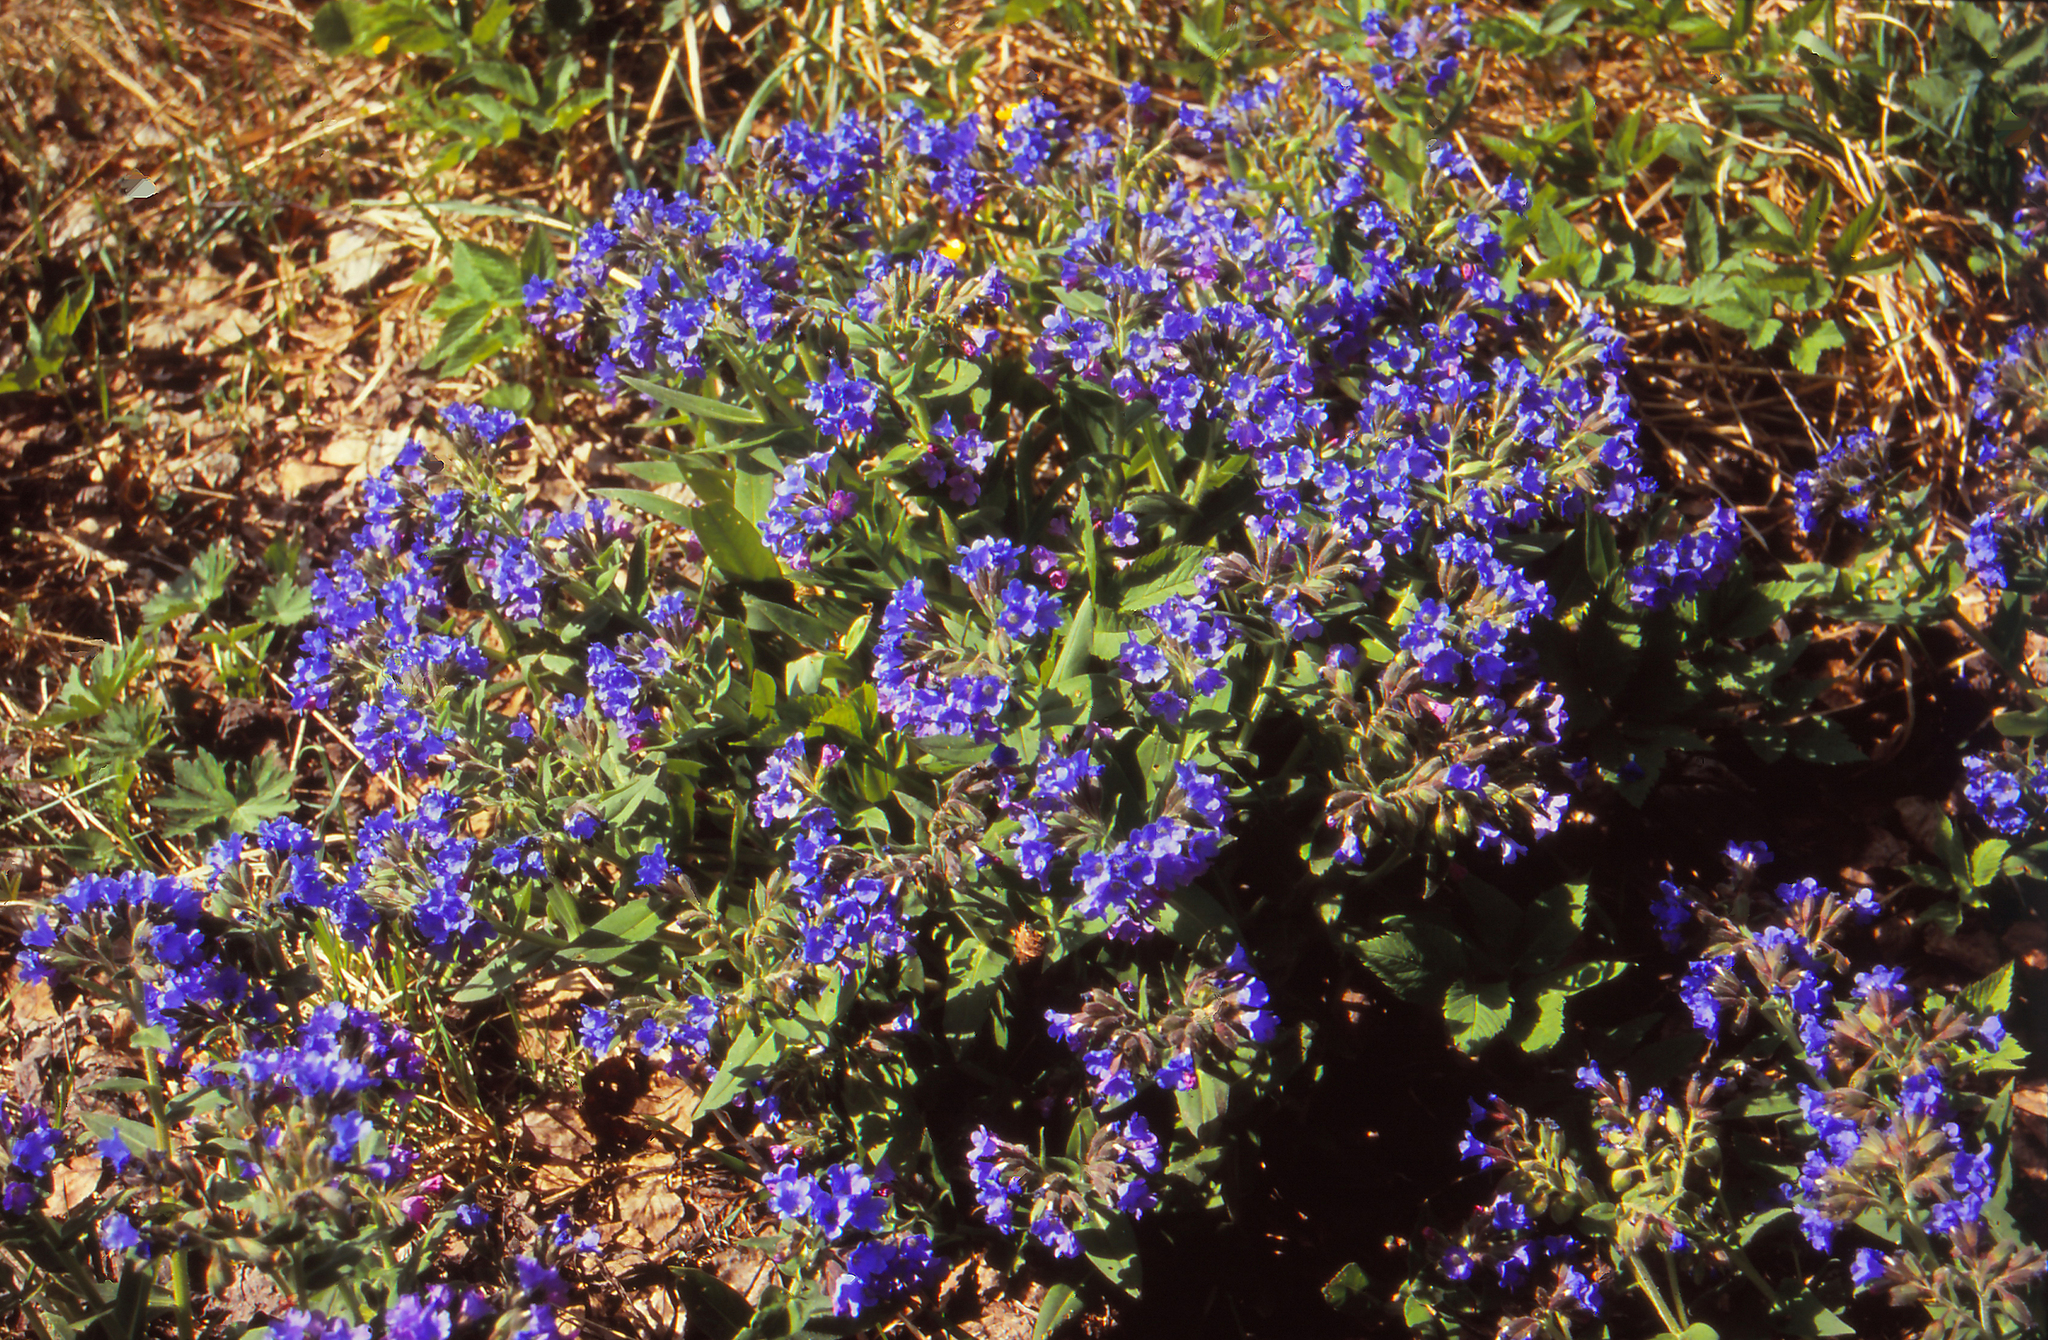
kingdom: Plantae
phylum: Tracheophyta
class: Magnoliopsida
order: Boraginales
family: Boraginaceae
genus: Pulmonaria
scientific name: Pulmonaria mollis
